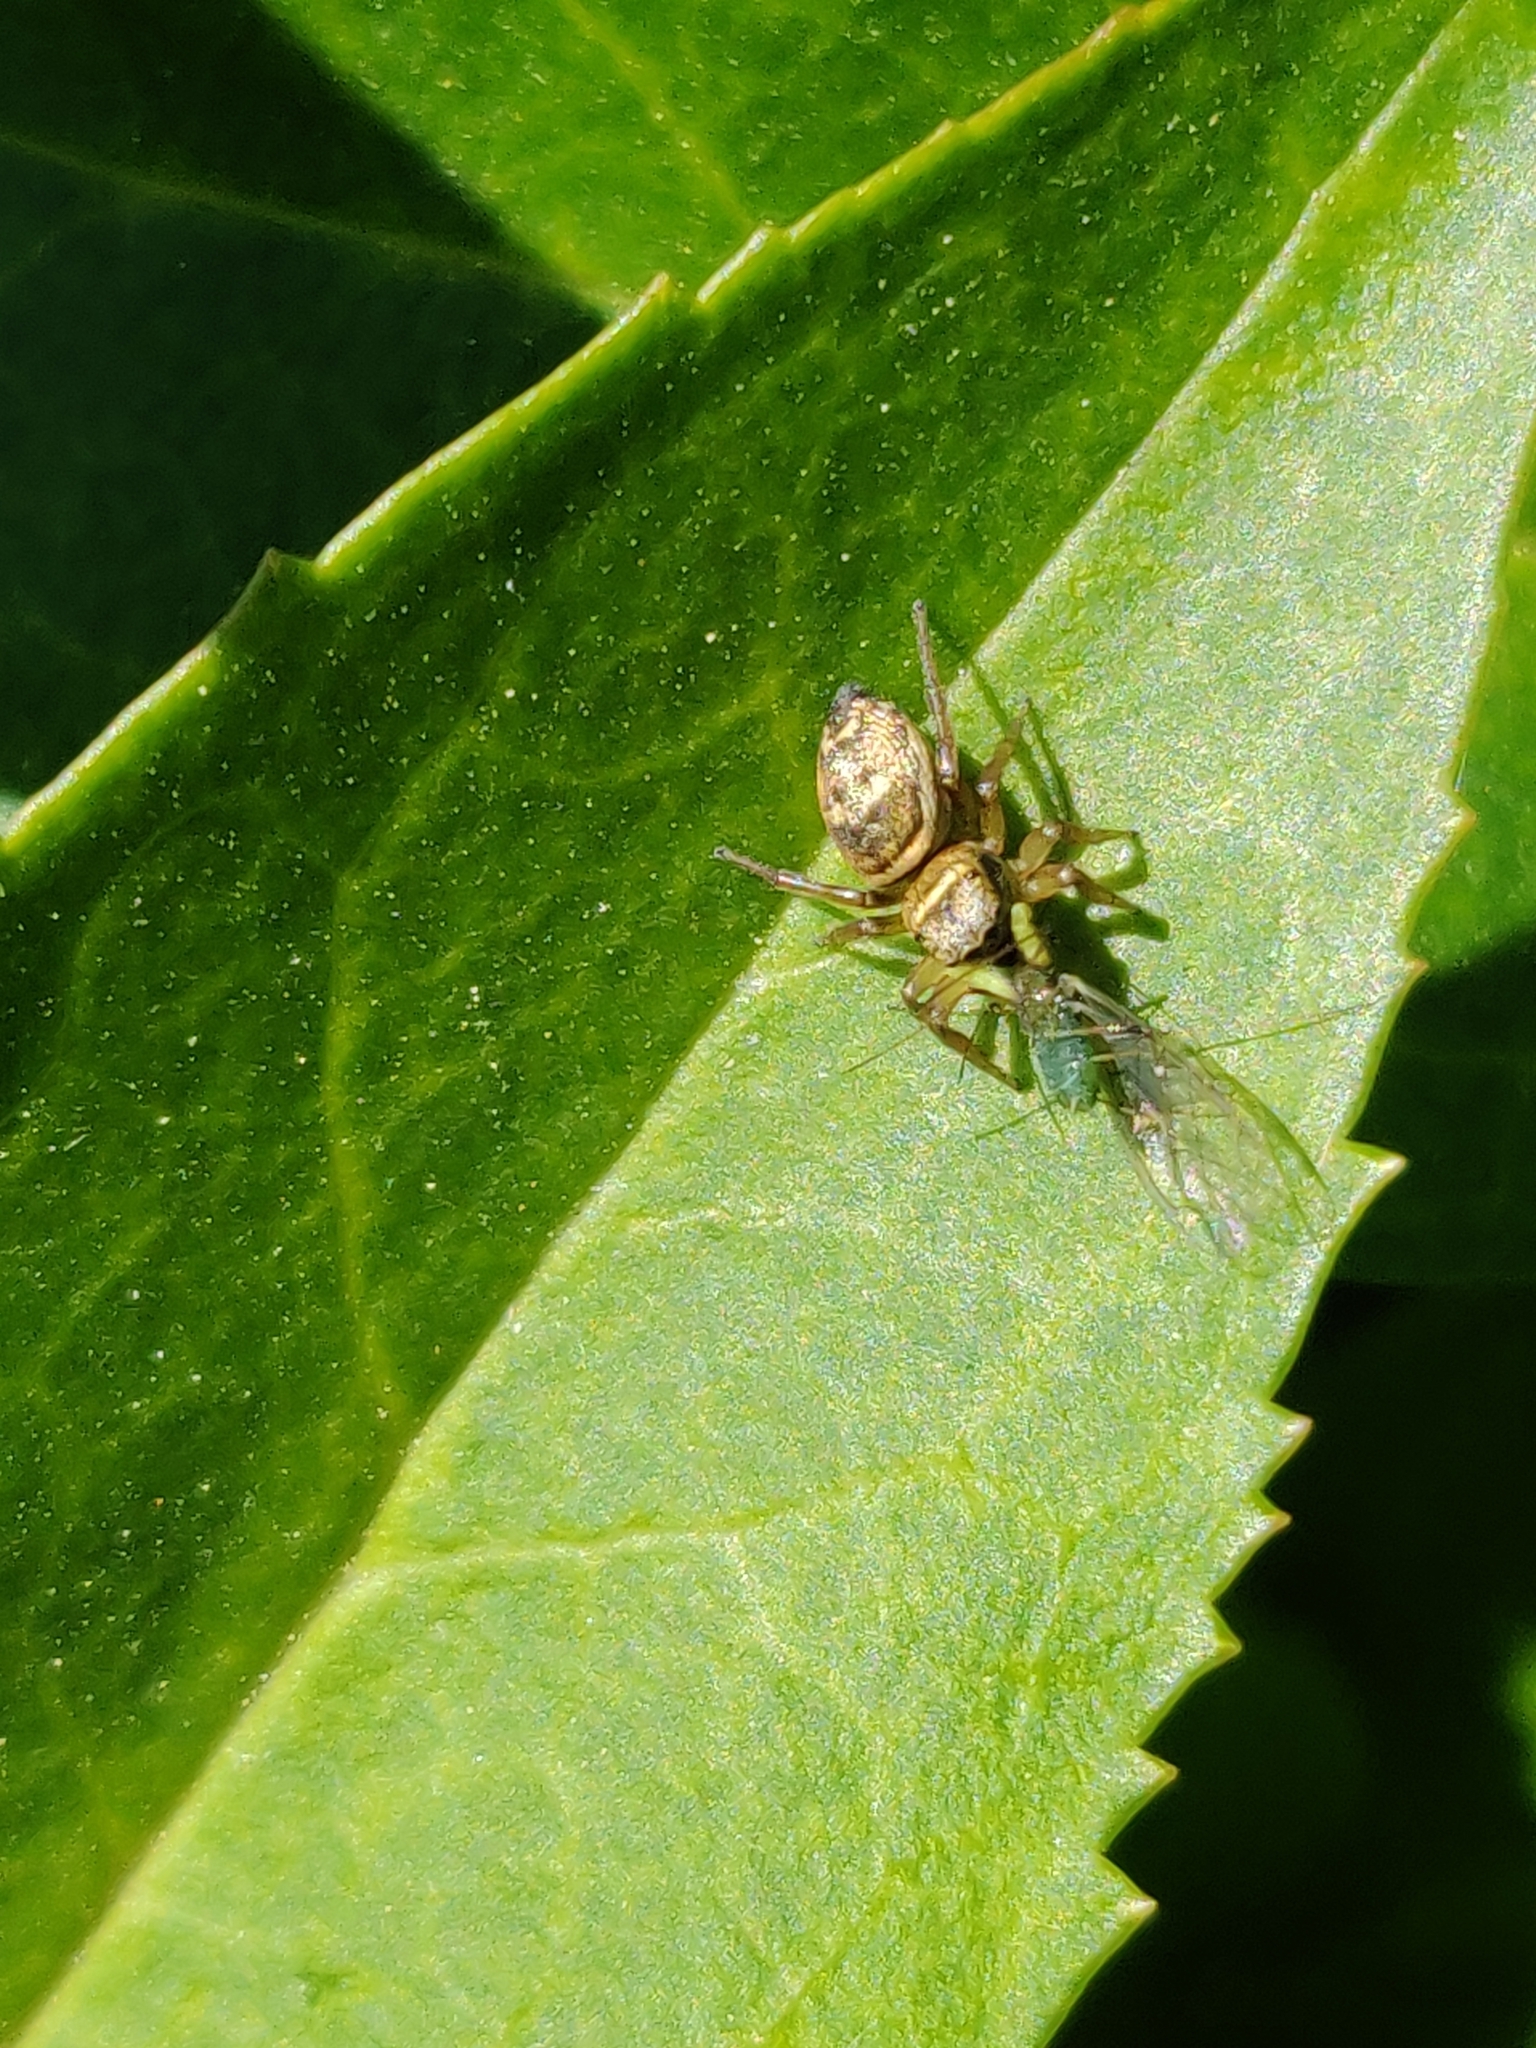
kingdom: Animalia
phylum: Arthropoda
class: Arachnida
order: Araneae
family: Salticidae
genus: Heliophanus
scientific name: Heliophanus tribulosus
